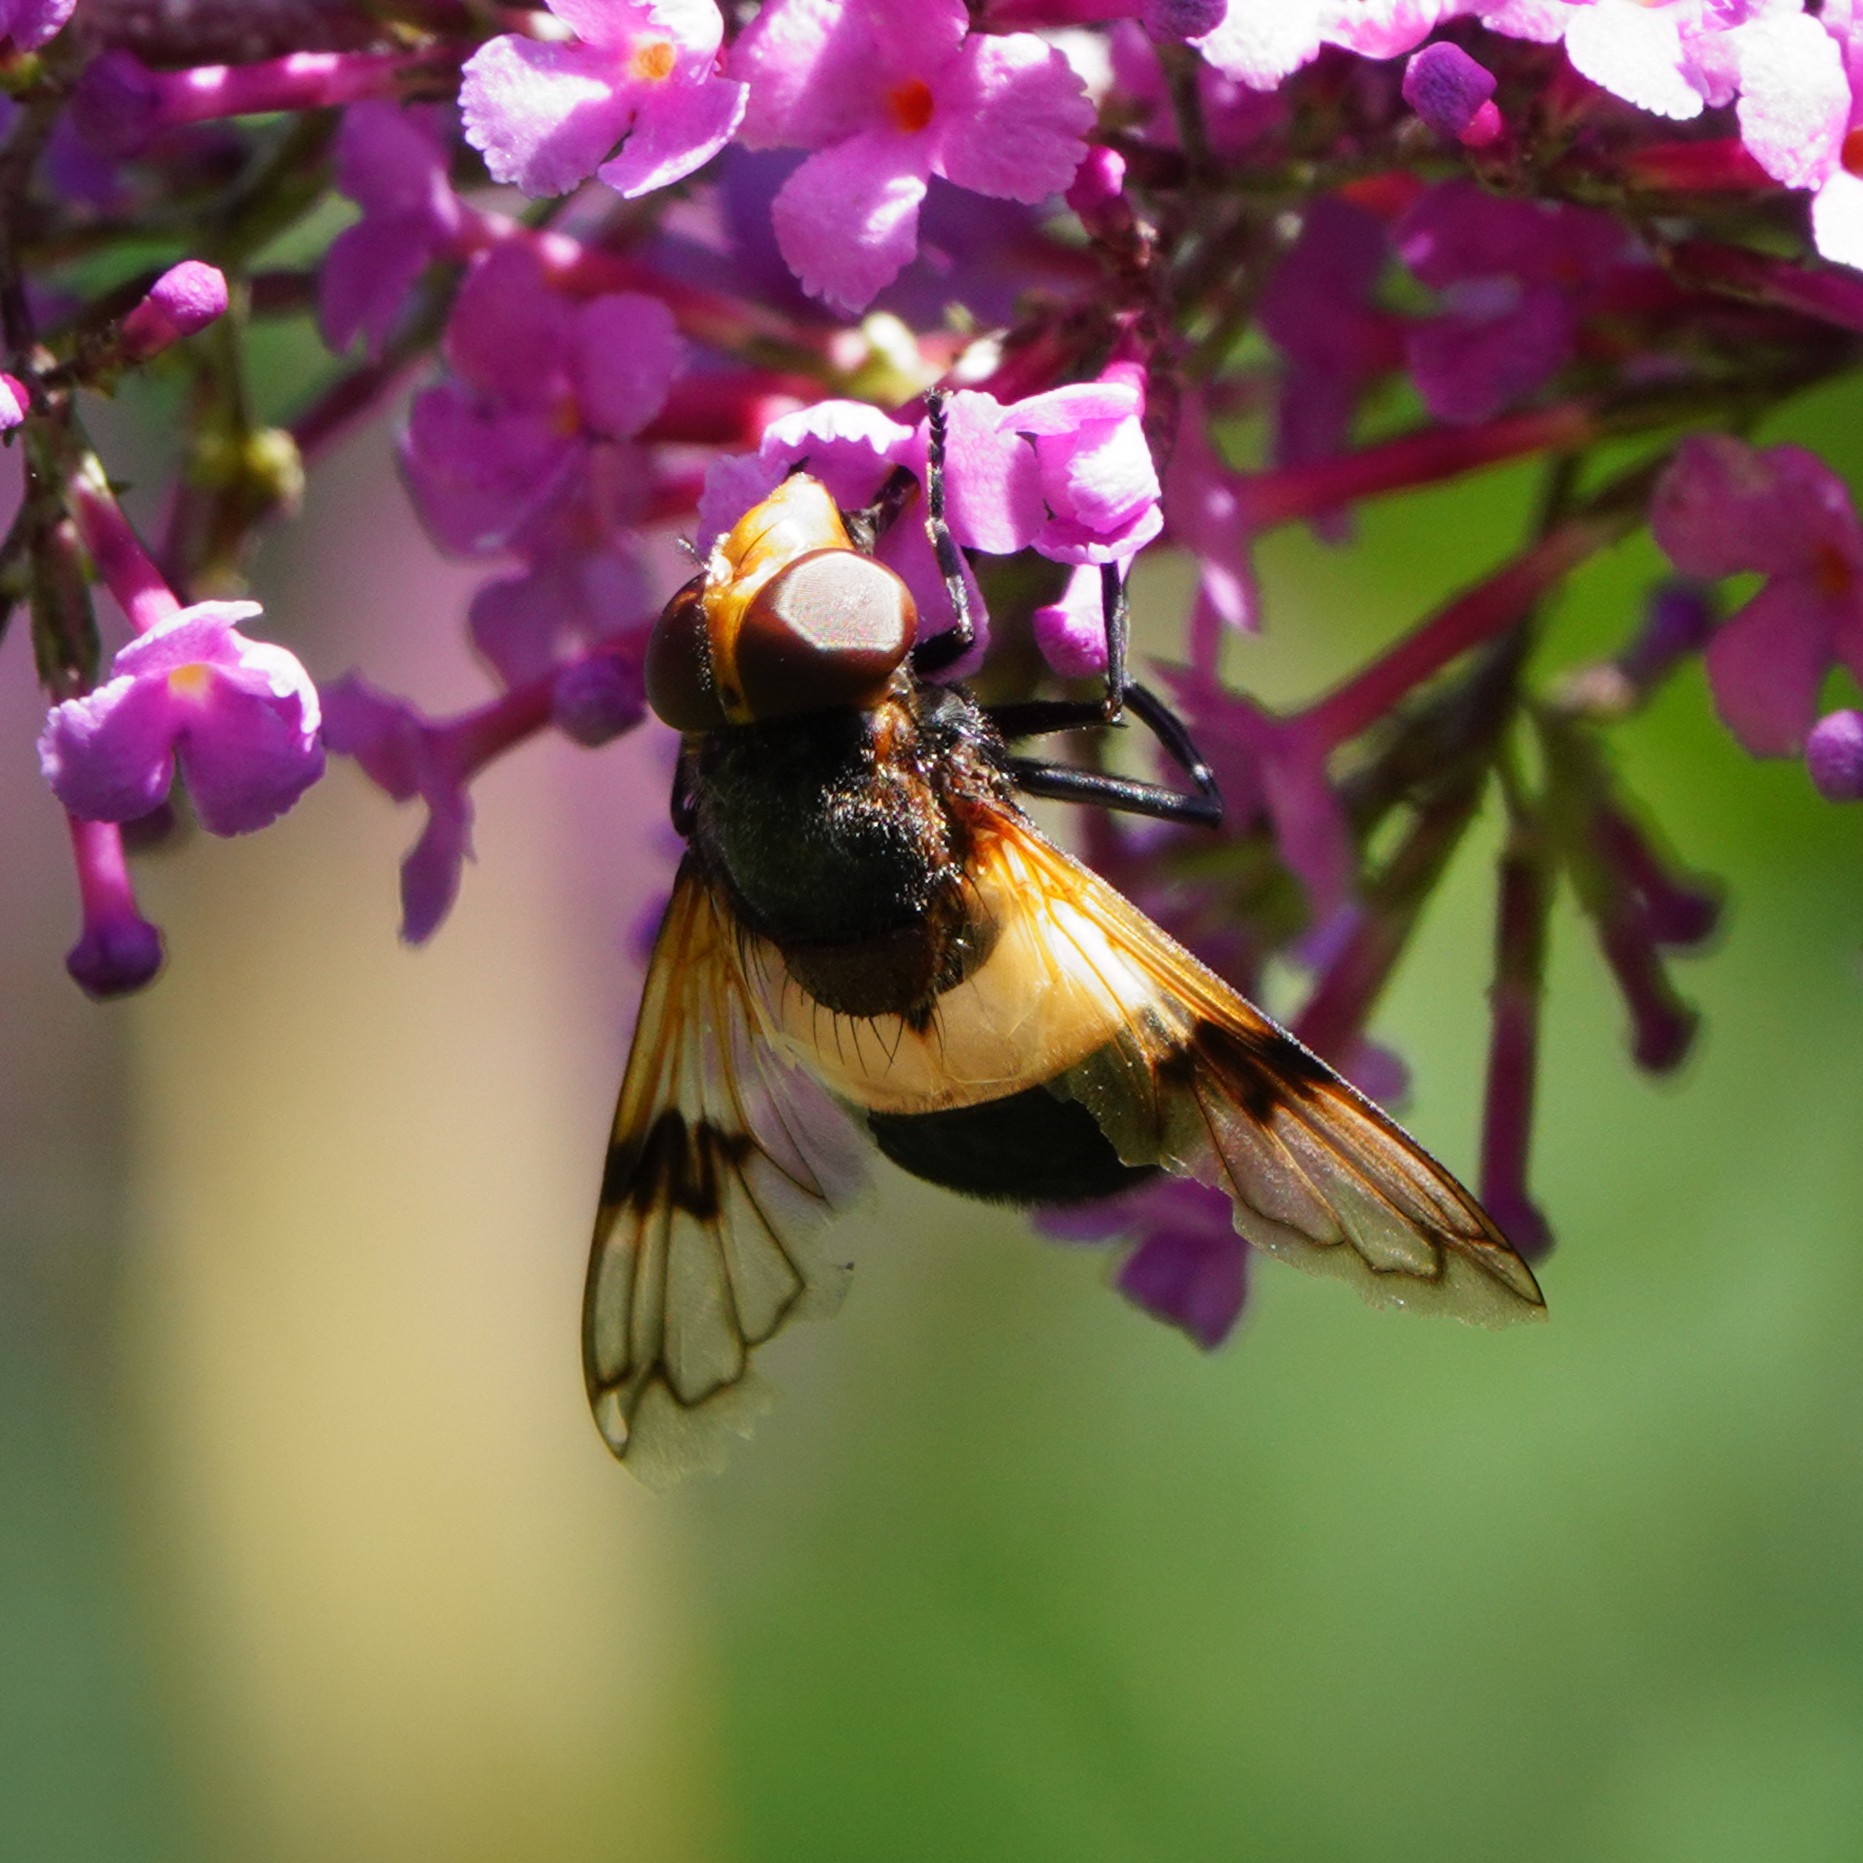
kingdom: Animalia
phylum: Arthropoda
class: Insecta
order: Diptera
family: Syrphidae
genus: Volucella
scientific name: Volucella pellucens
